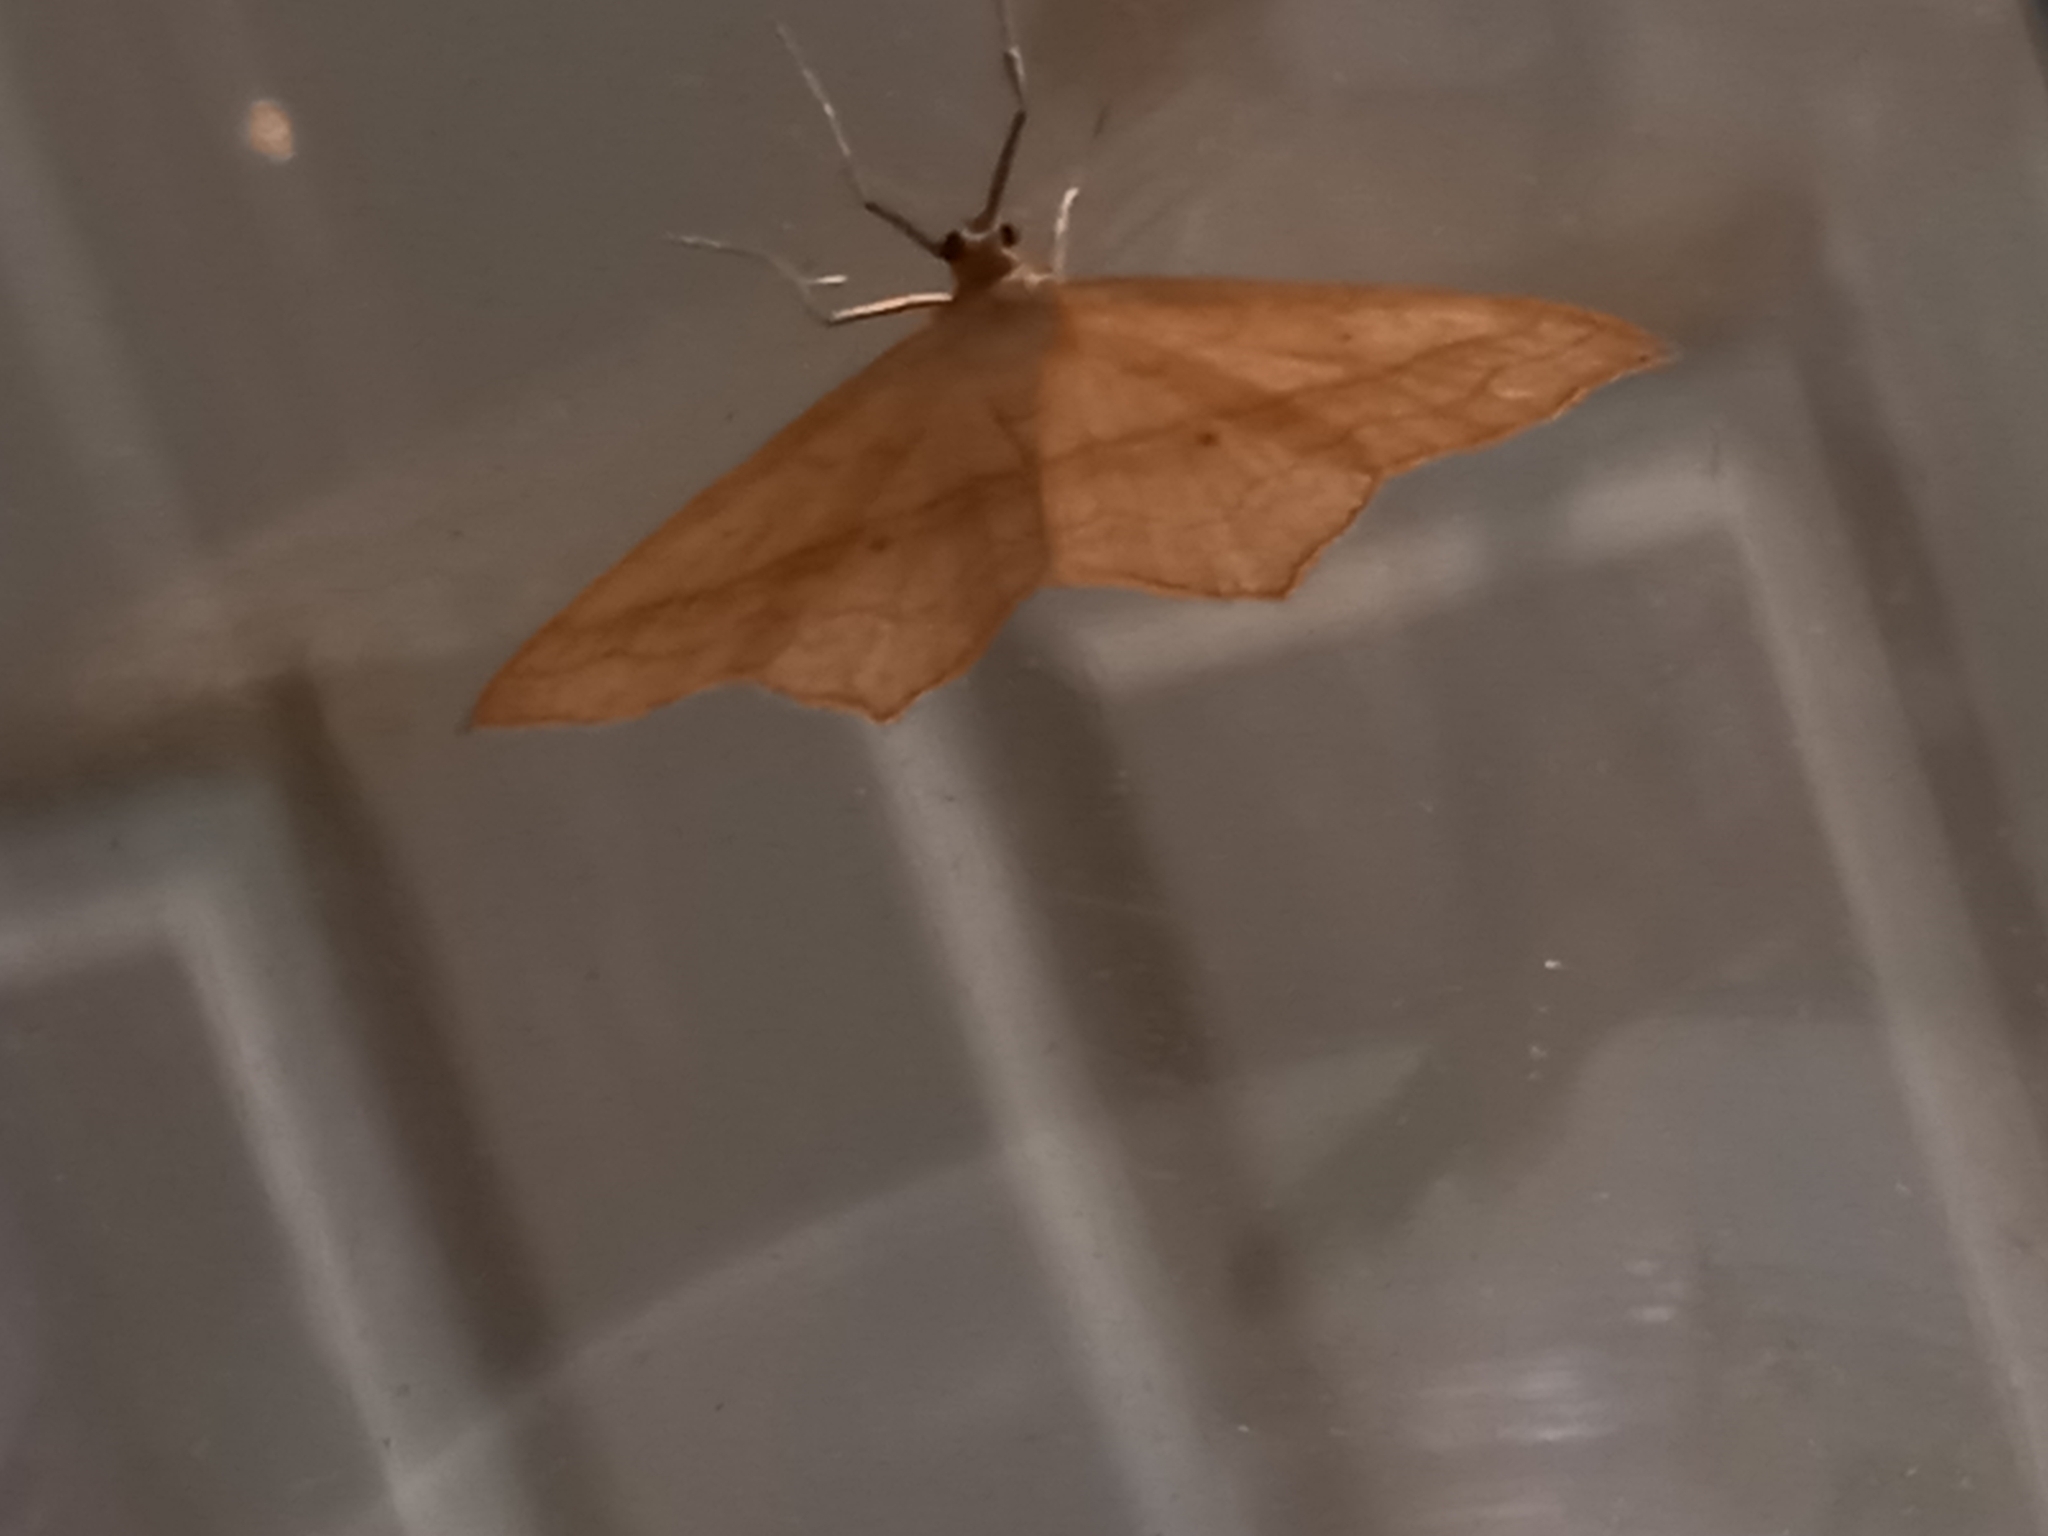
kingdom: Animalia
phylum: Arthropoda
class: Insecta
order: Lepidoptera
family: Geometridae
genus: Scopula
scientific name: Scopula imitaria
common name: Small blood-vein
